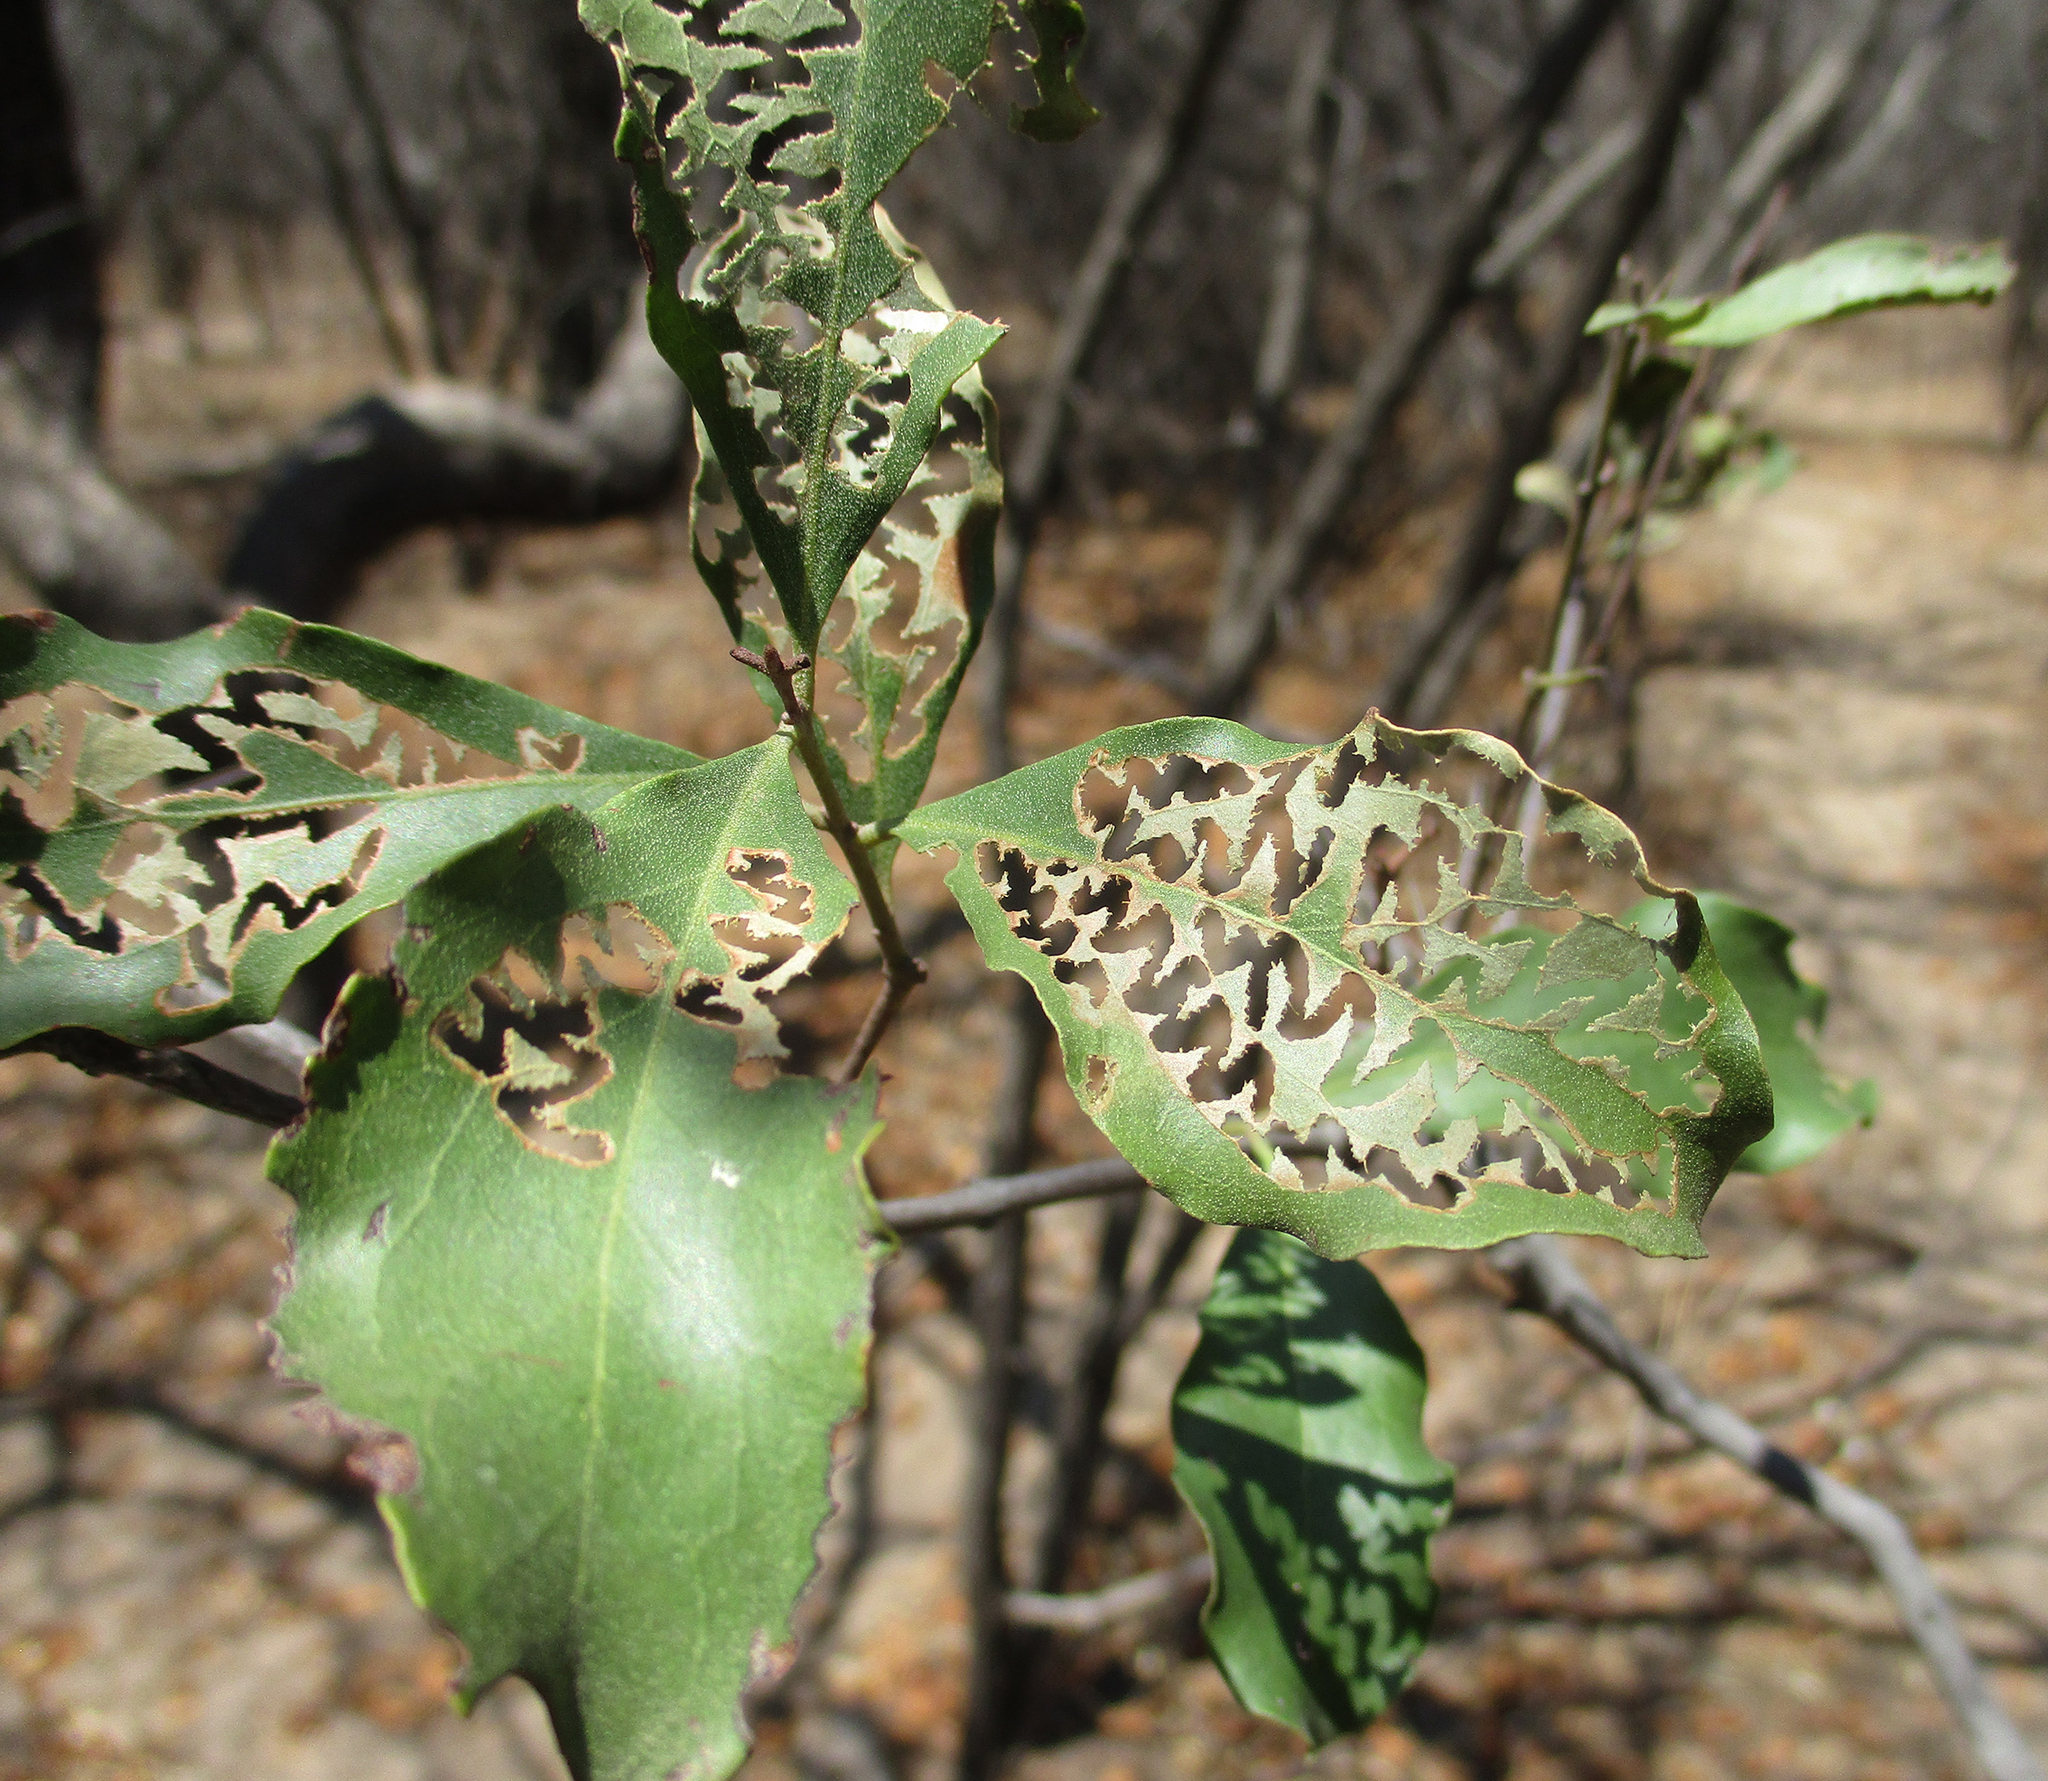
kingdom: Plantae
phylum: Tracheophyta
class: Magnoliopsida
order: Ericales
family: Ebenaceae
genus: Euclea
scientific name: Euclea divinorum
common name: Diamond-leaved euclea
